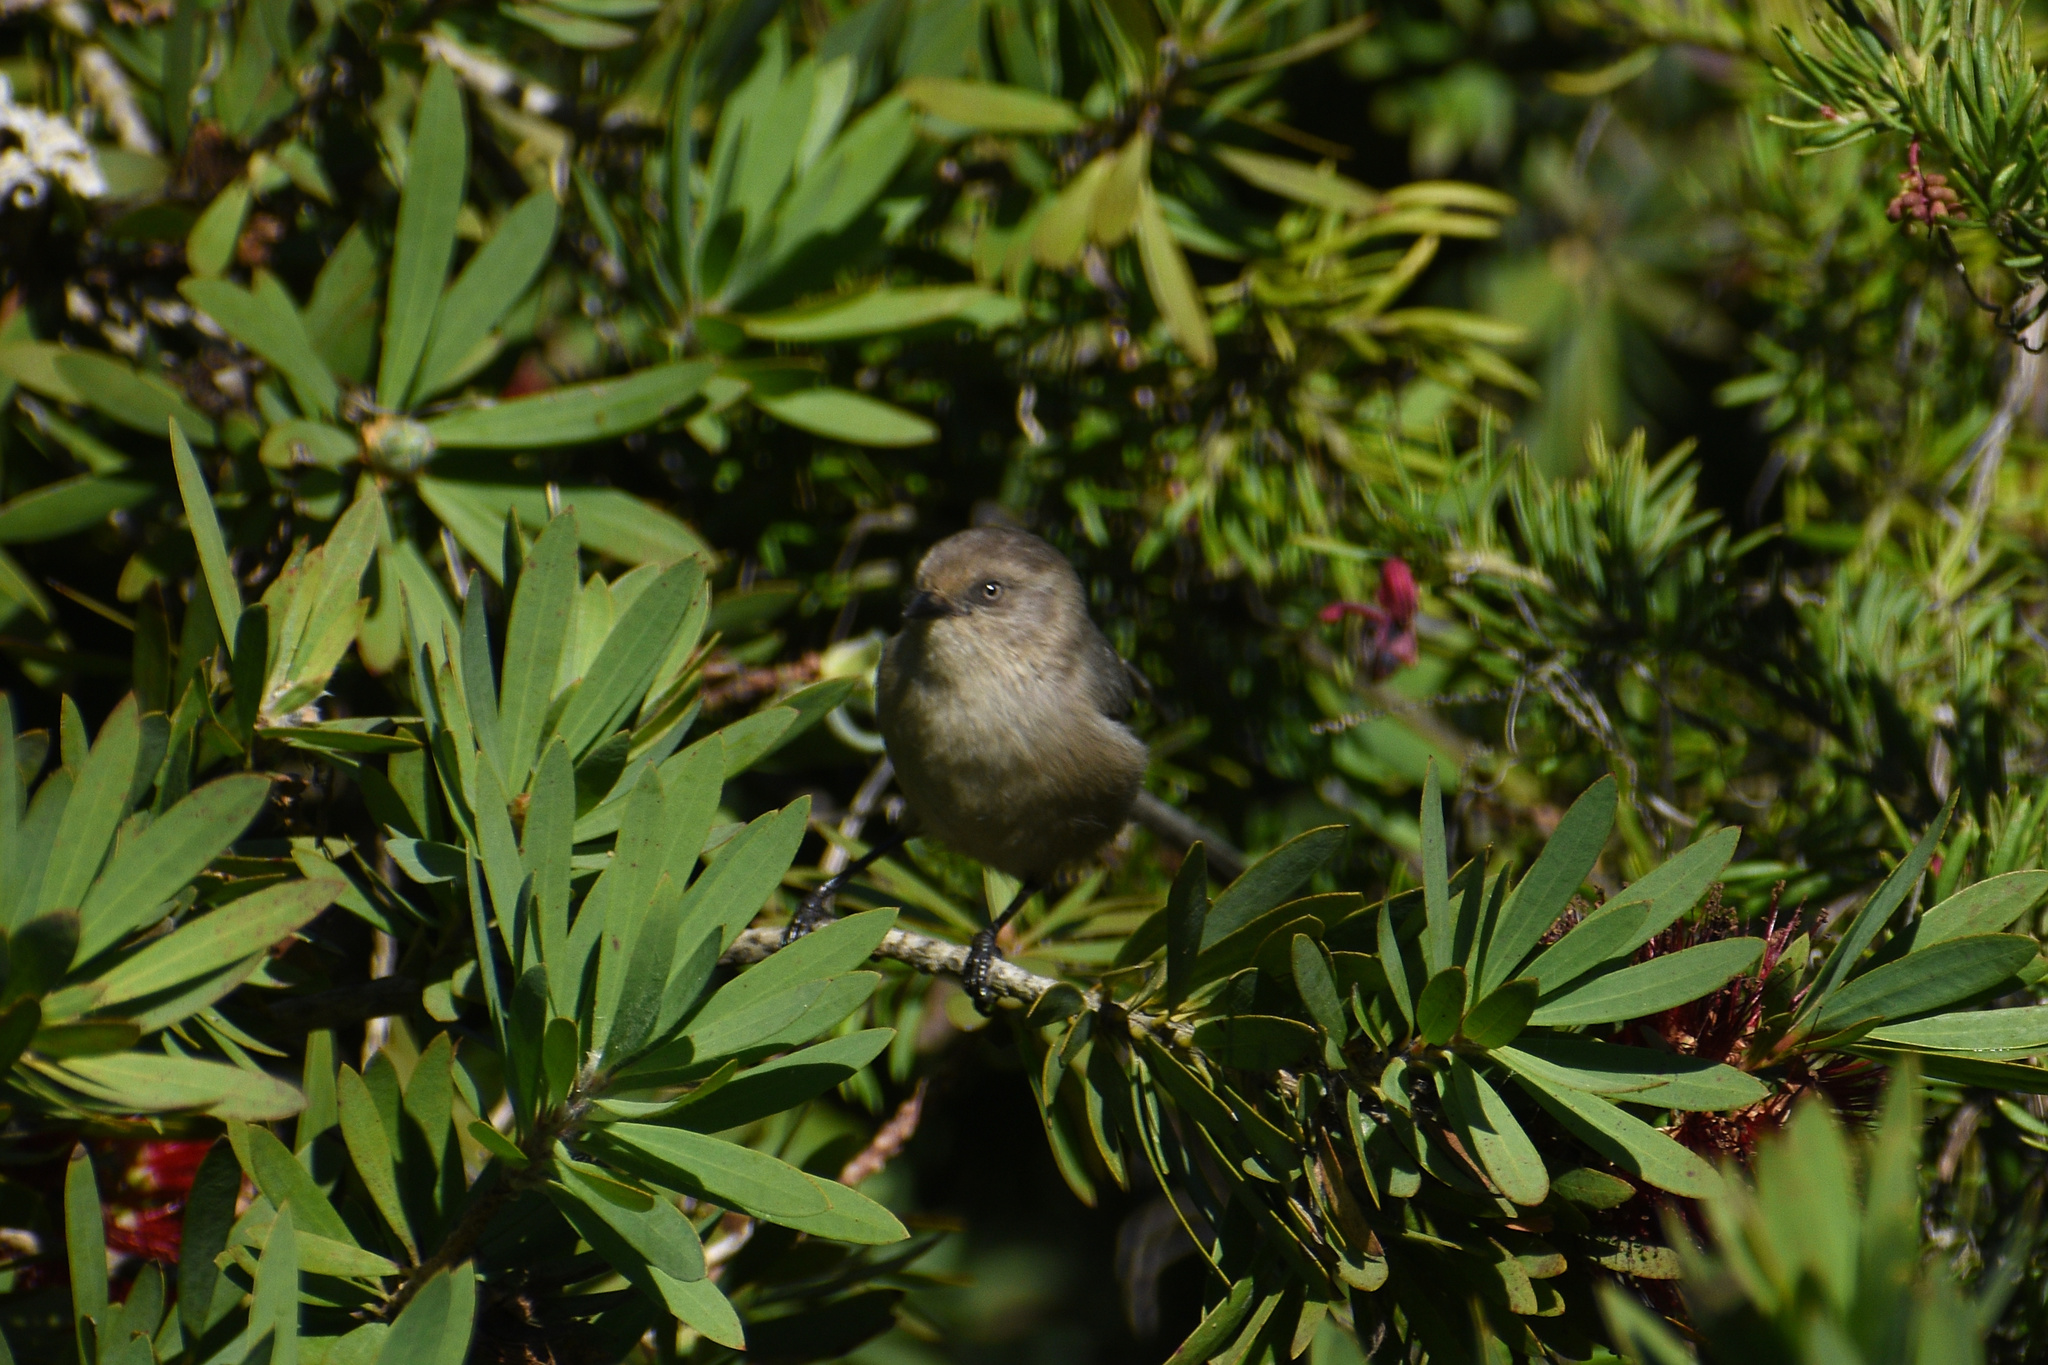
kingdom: Animalia
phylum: Chordata
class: Aves
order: Passeriformes
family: Aegithalidae
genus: Psaltriparus
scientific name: Psaltriparus minimus
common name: American bushtit
